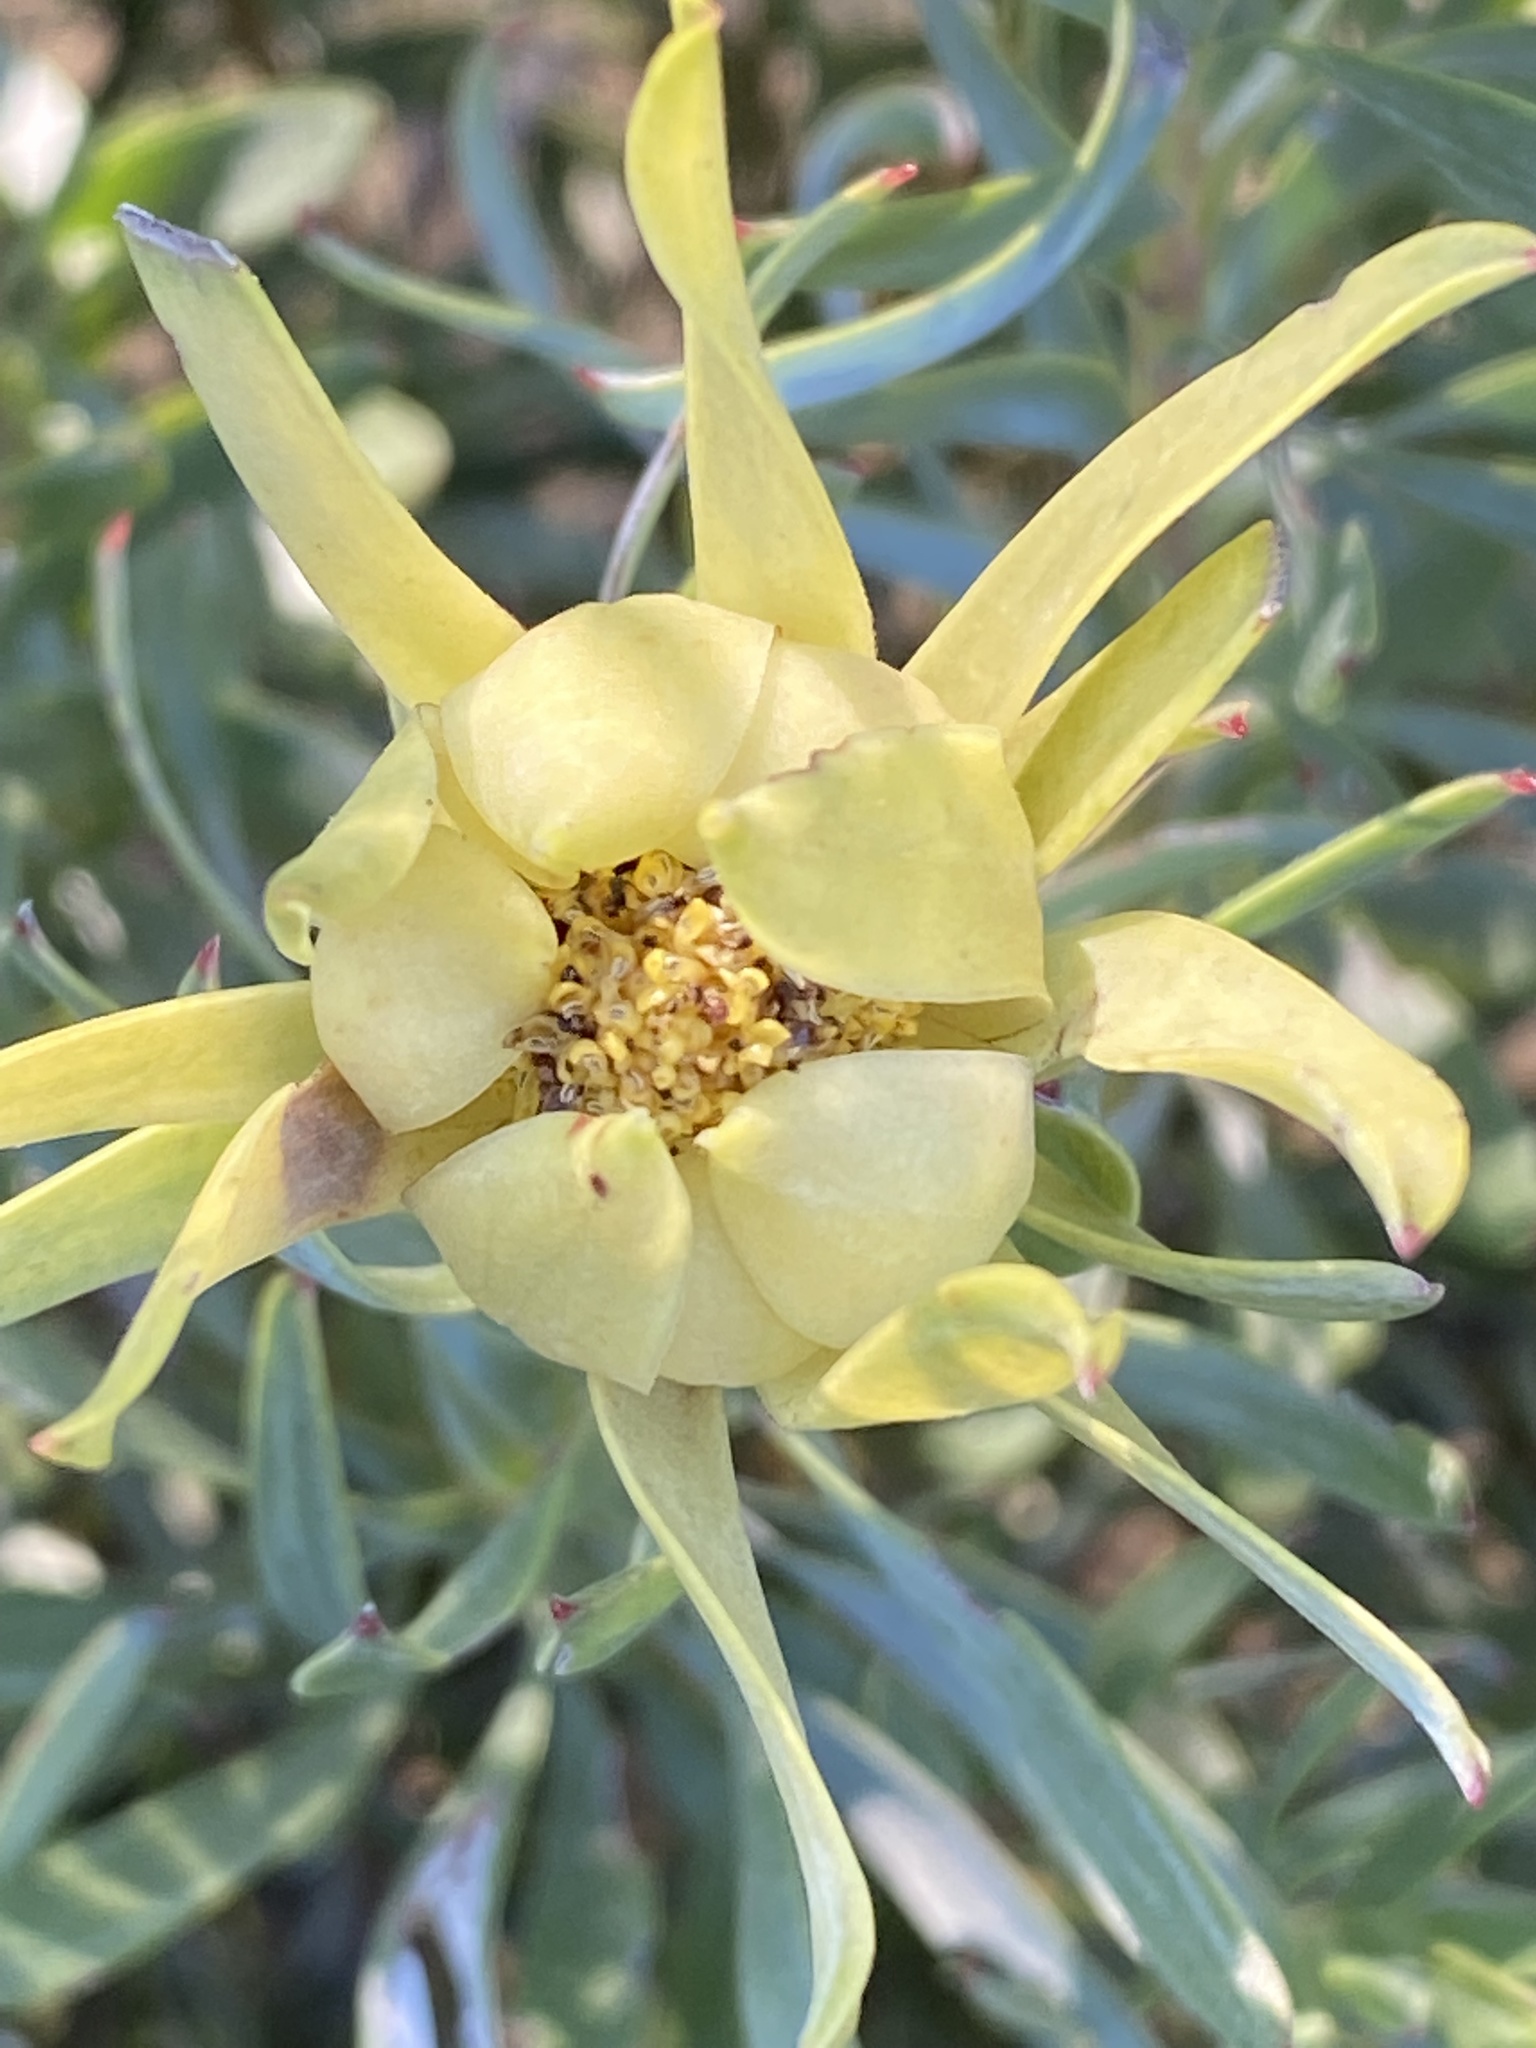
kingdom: Plantae
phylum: Tracheophyta
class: Magnoliopsida
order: Proteales
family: Proteaceae
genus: Leucadendron
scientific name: Leucadendron meridianum
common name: Limestone conebush
